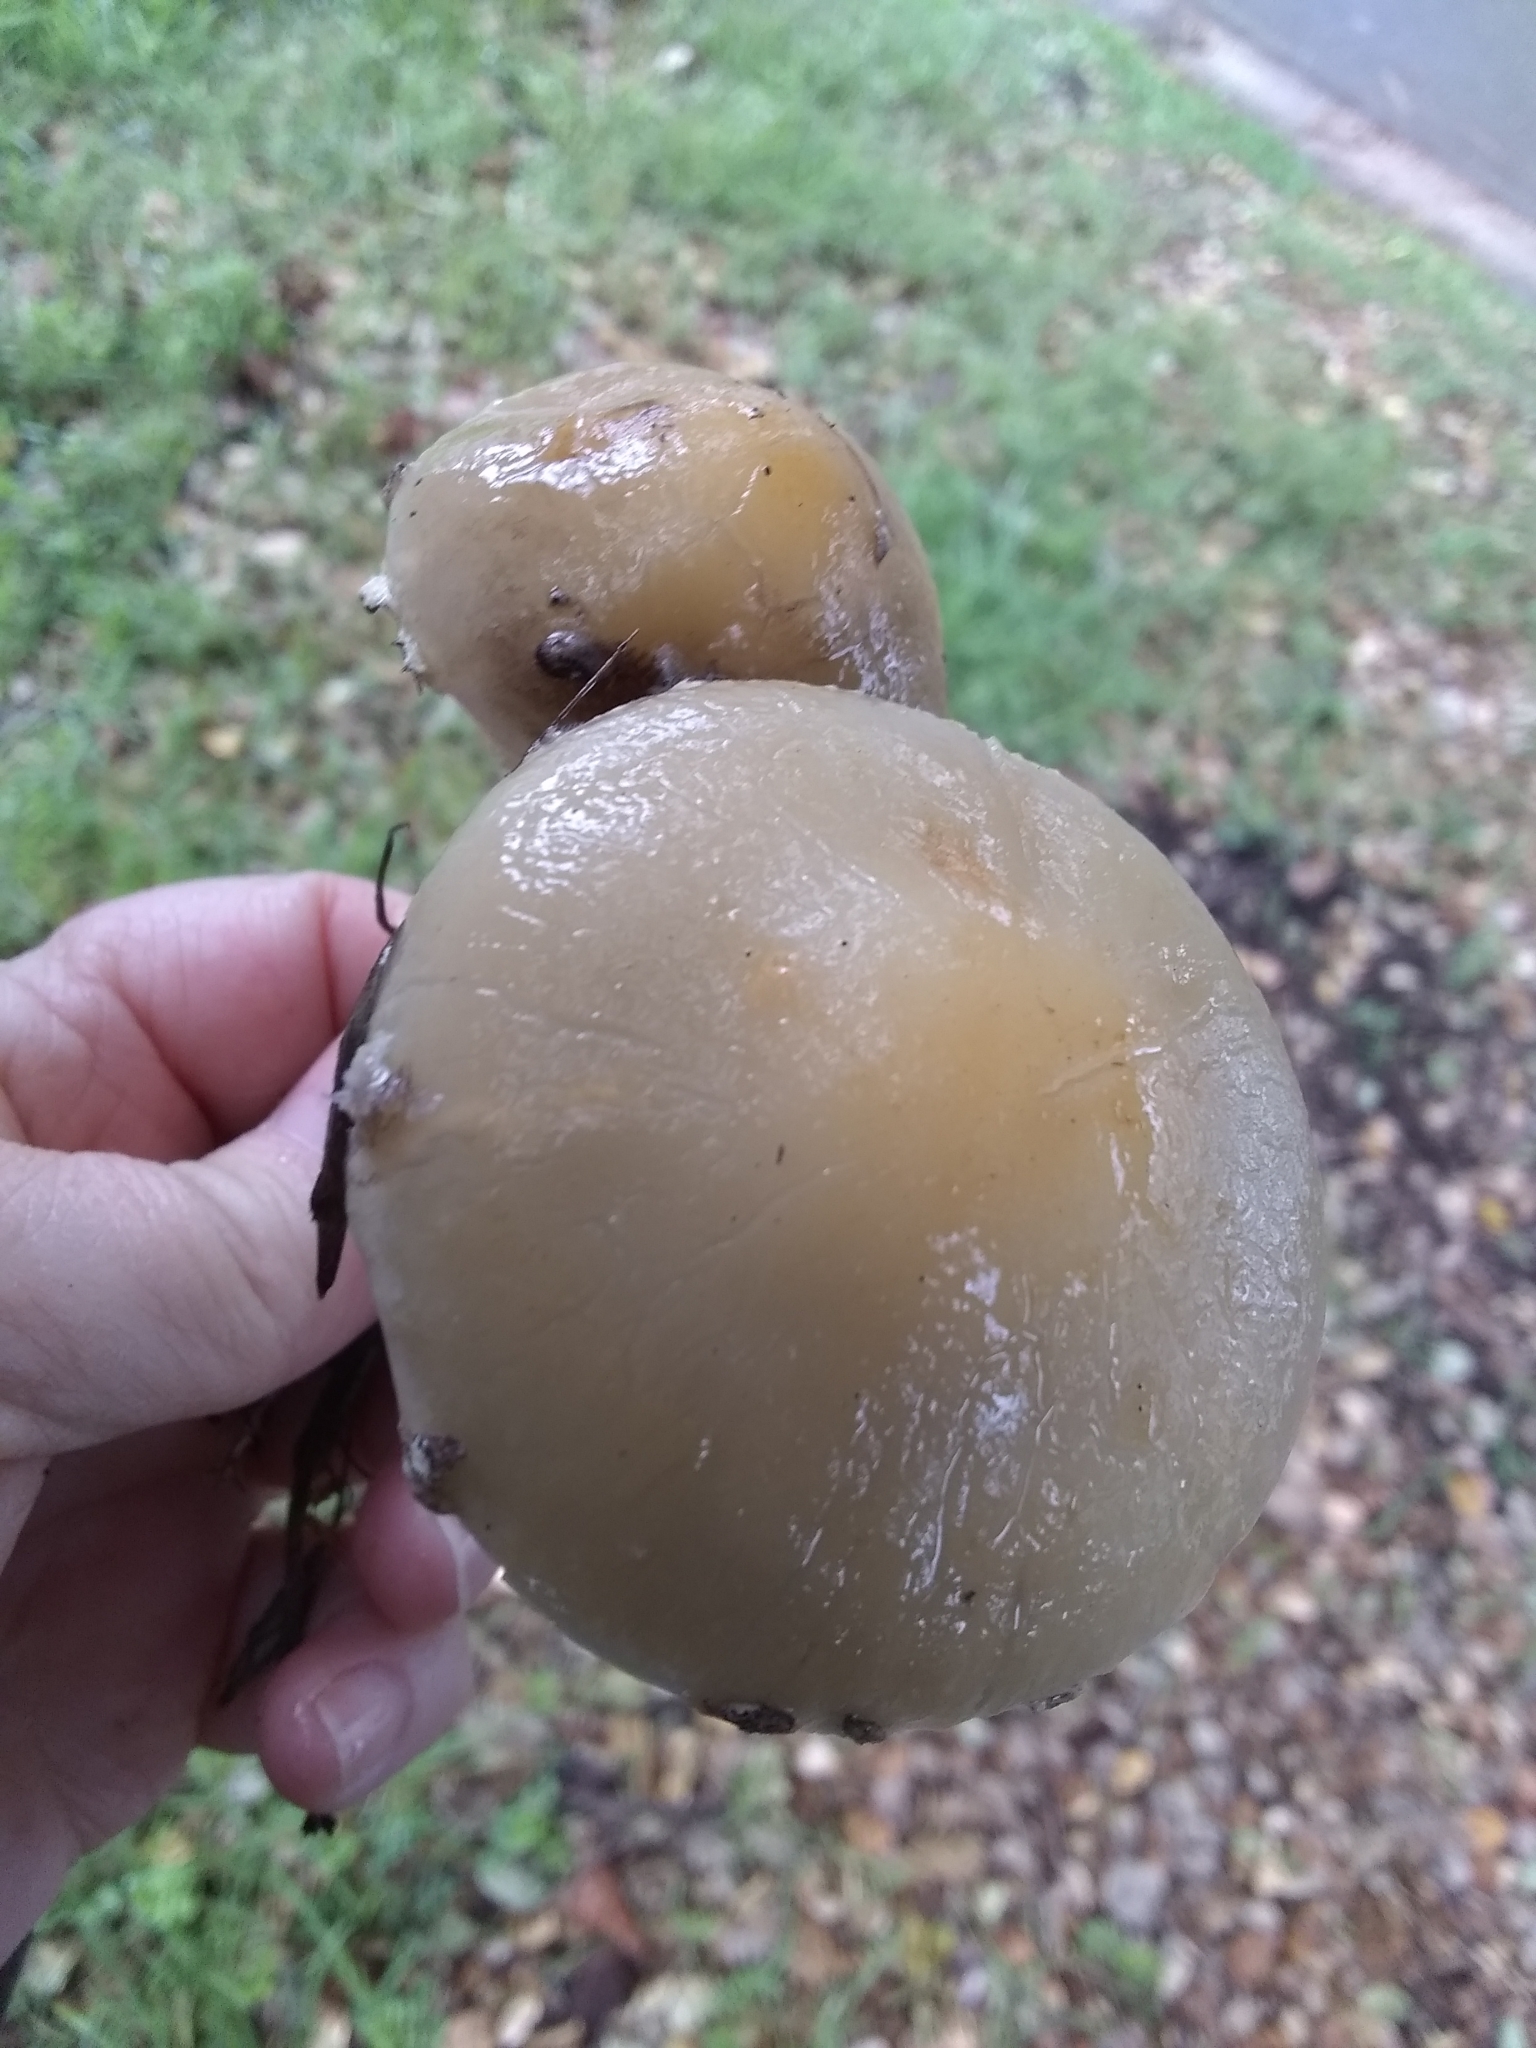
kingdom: Fungi
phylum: Basidiomycota
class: Agaricomycetes
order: Agaricales
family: Strophariaceae
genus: Leratiomyces
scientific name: Leratiomyces percevalii
